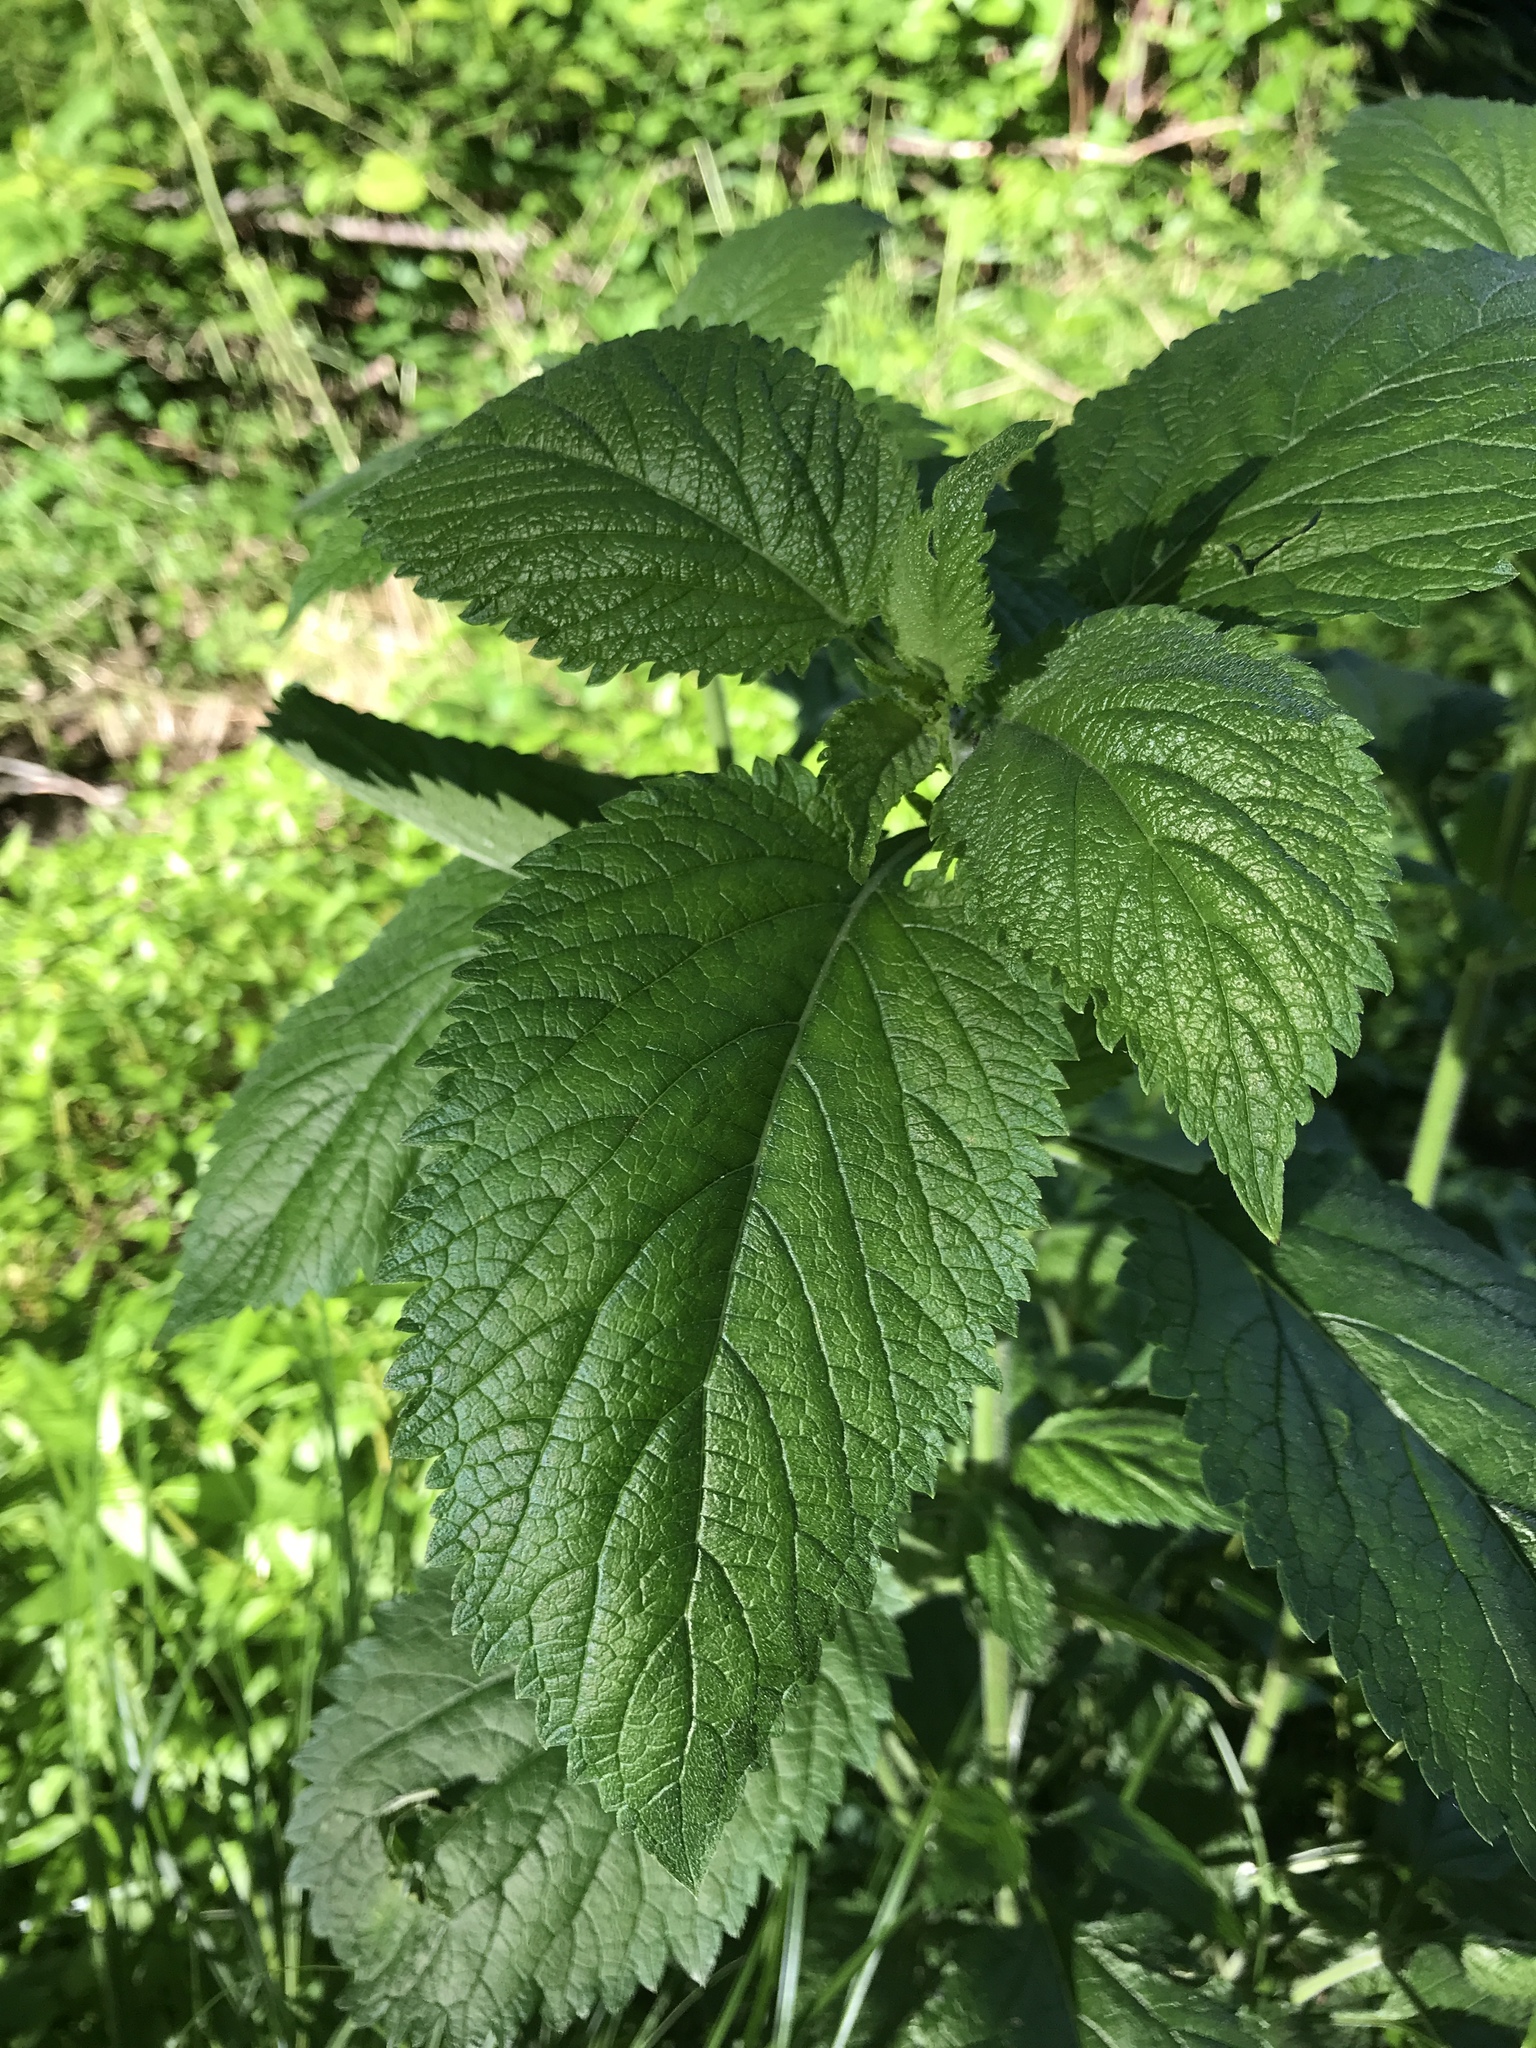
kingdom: Plantae
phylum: Tracheophyta
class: Magnoliopsida
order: Lamiales
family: Verbenaceae
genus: Verbena
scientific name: Verbena urticifolia
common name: Nettle-leaved vervain
